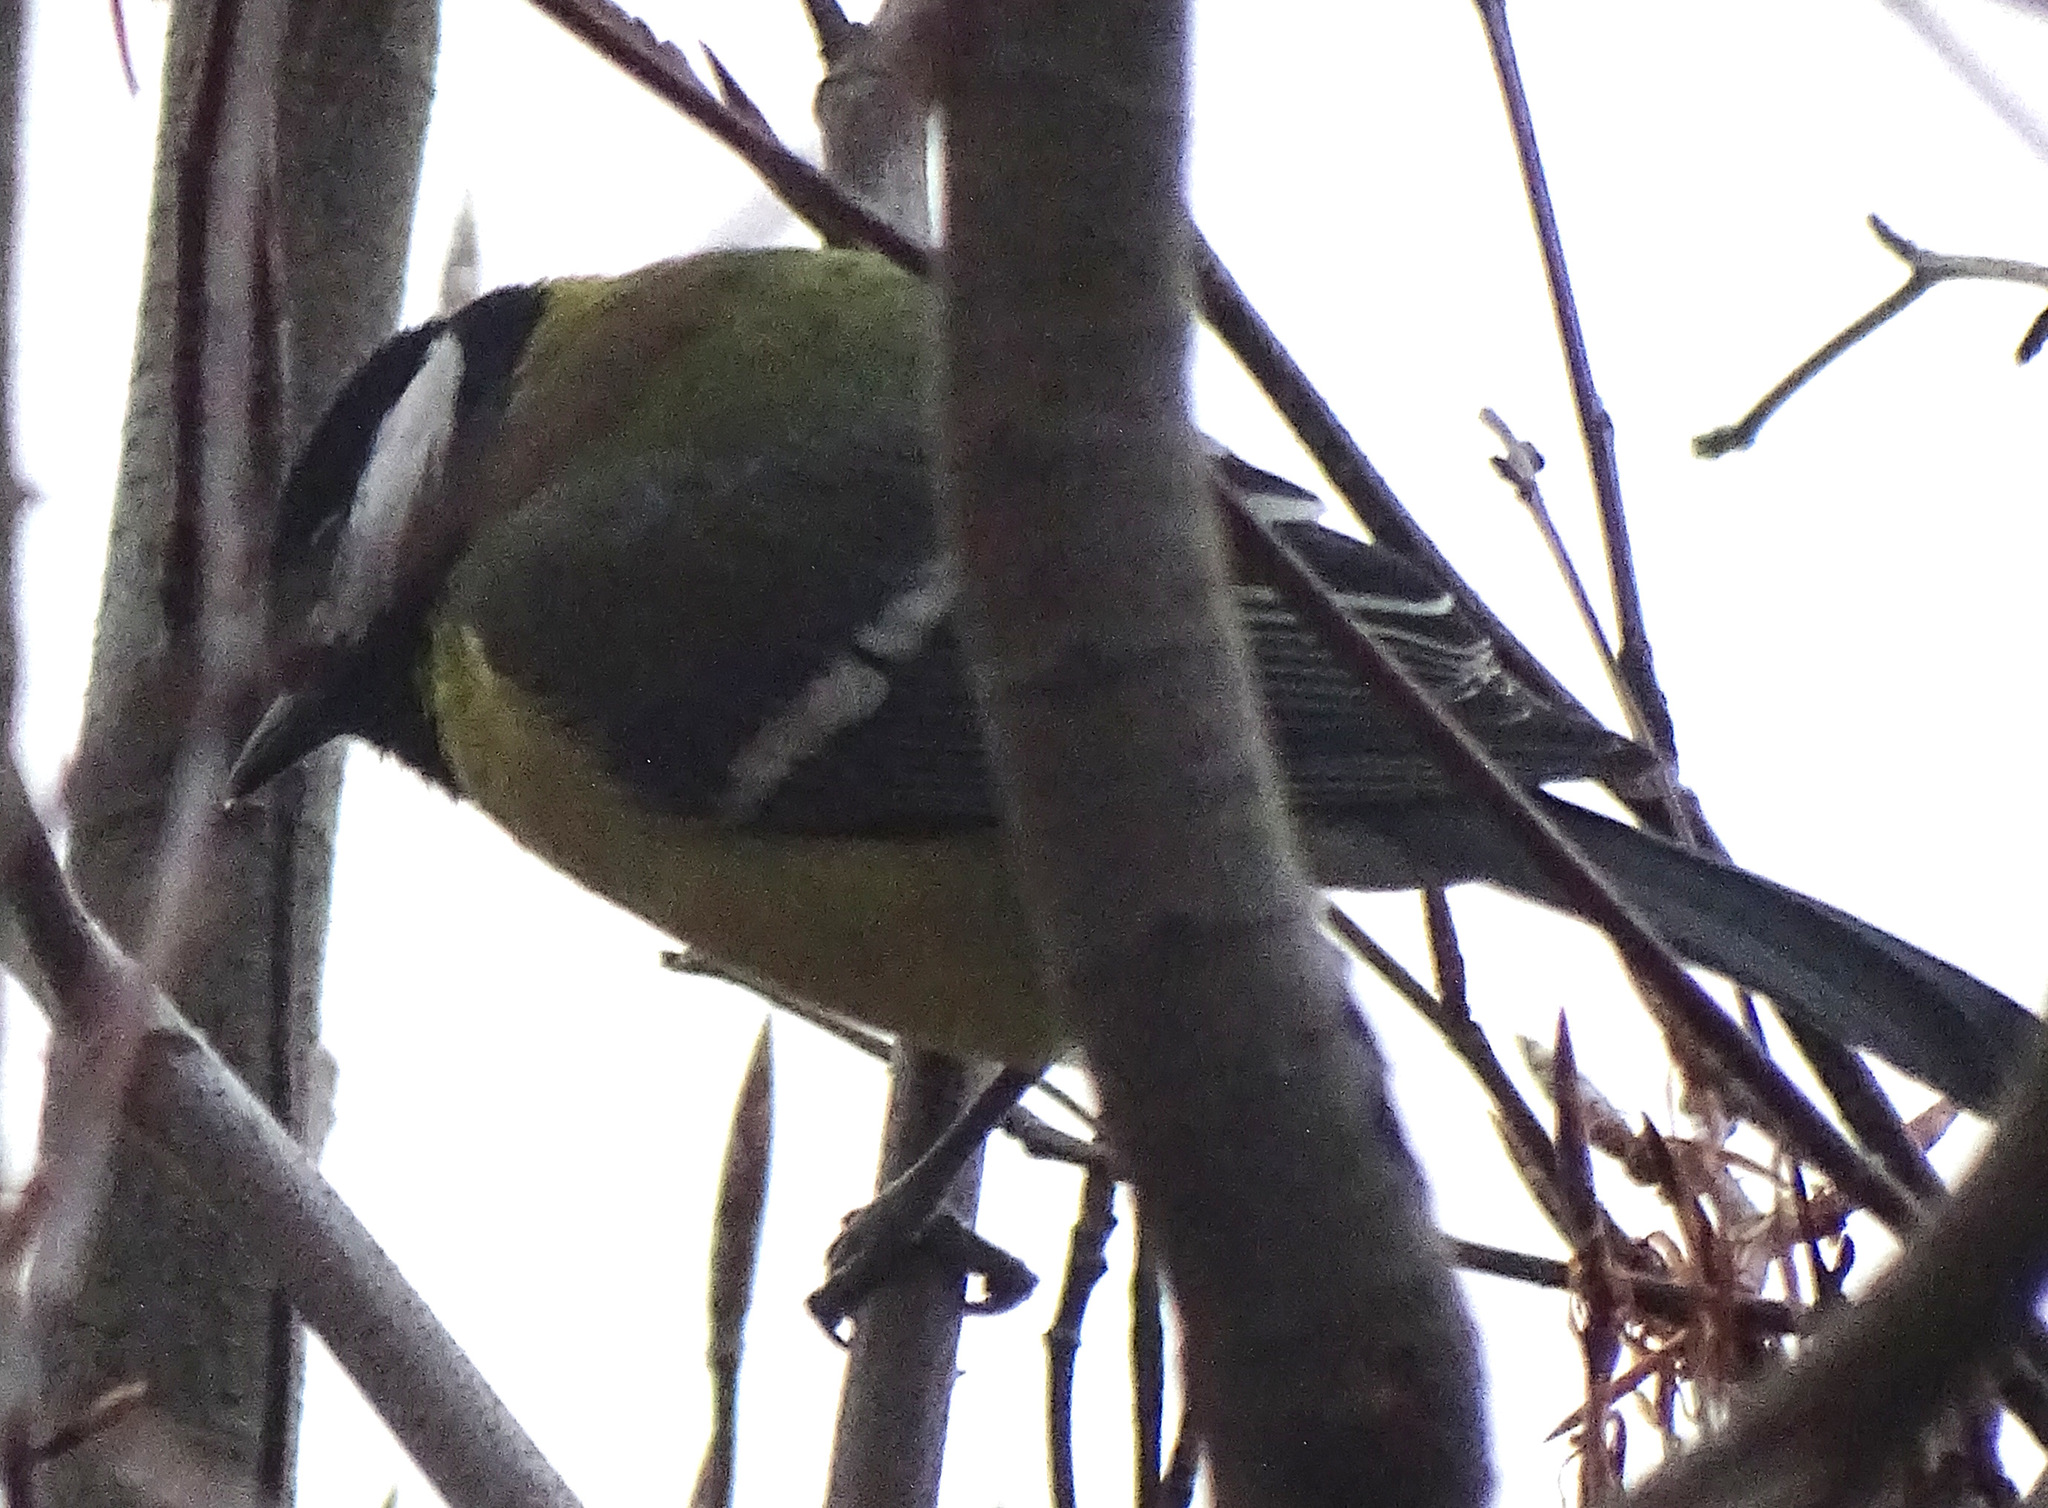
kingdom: Animalia
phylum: Chordata
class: Aves
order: Passeriformes
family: Paridae
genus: Parus
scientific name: Parus major
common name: Great tit
